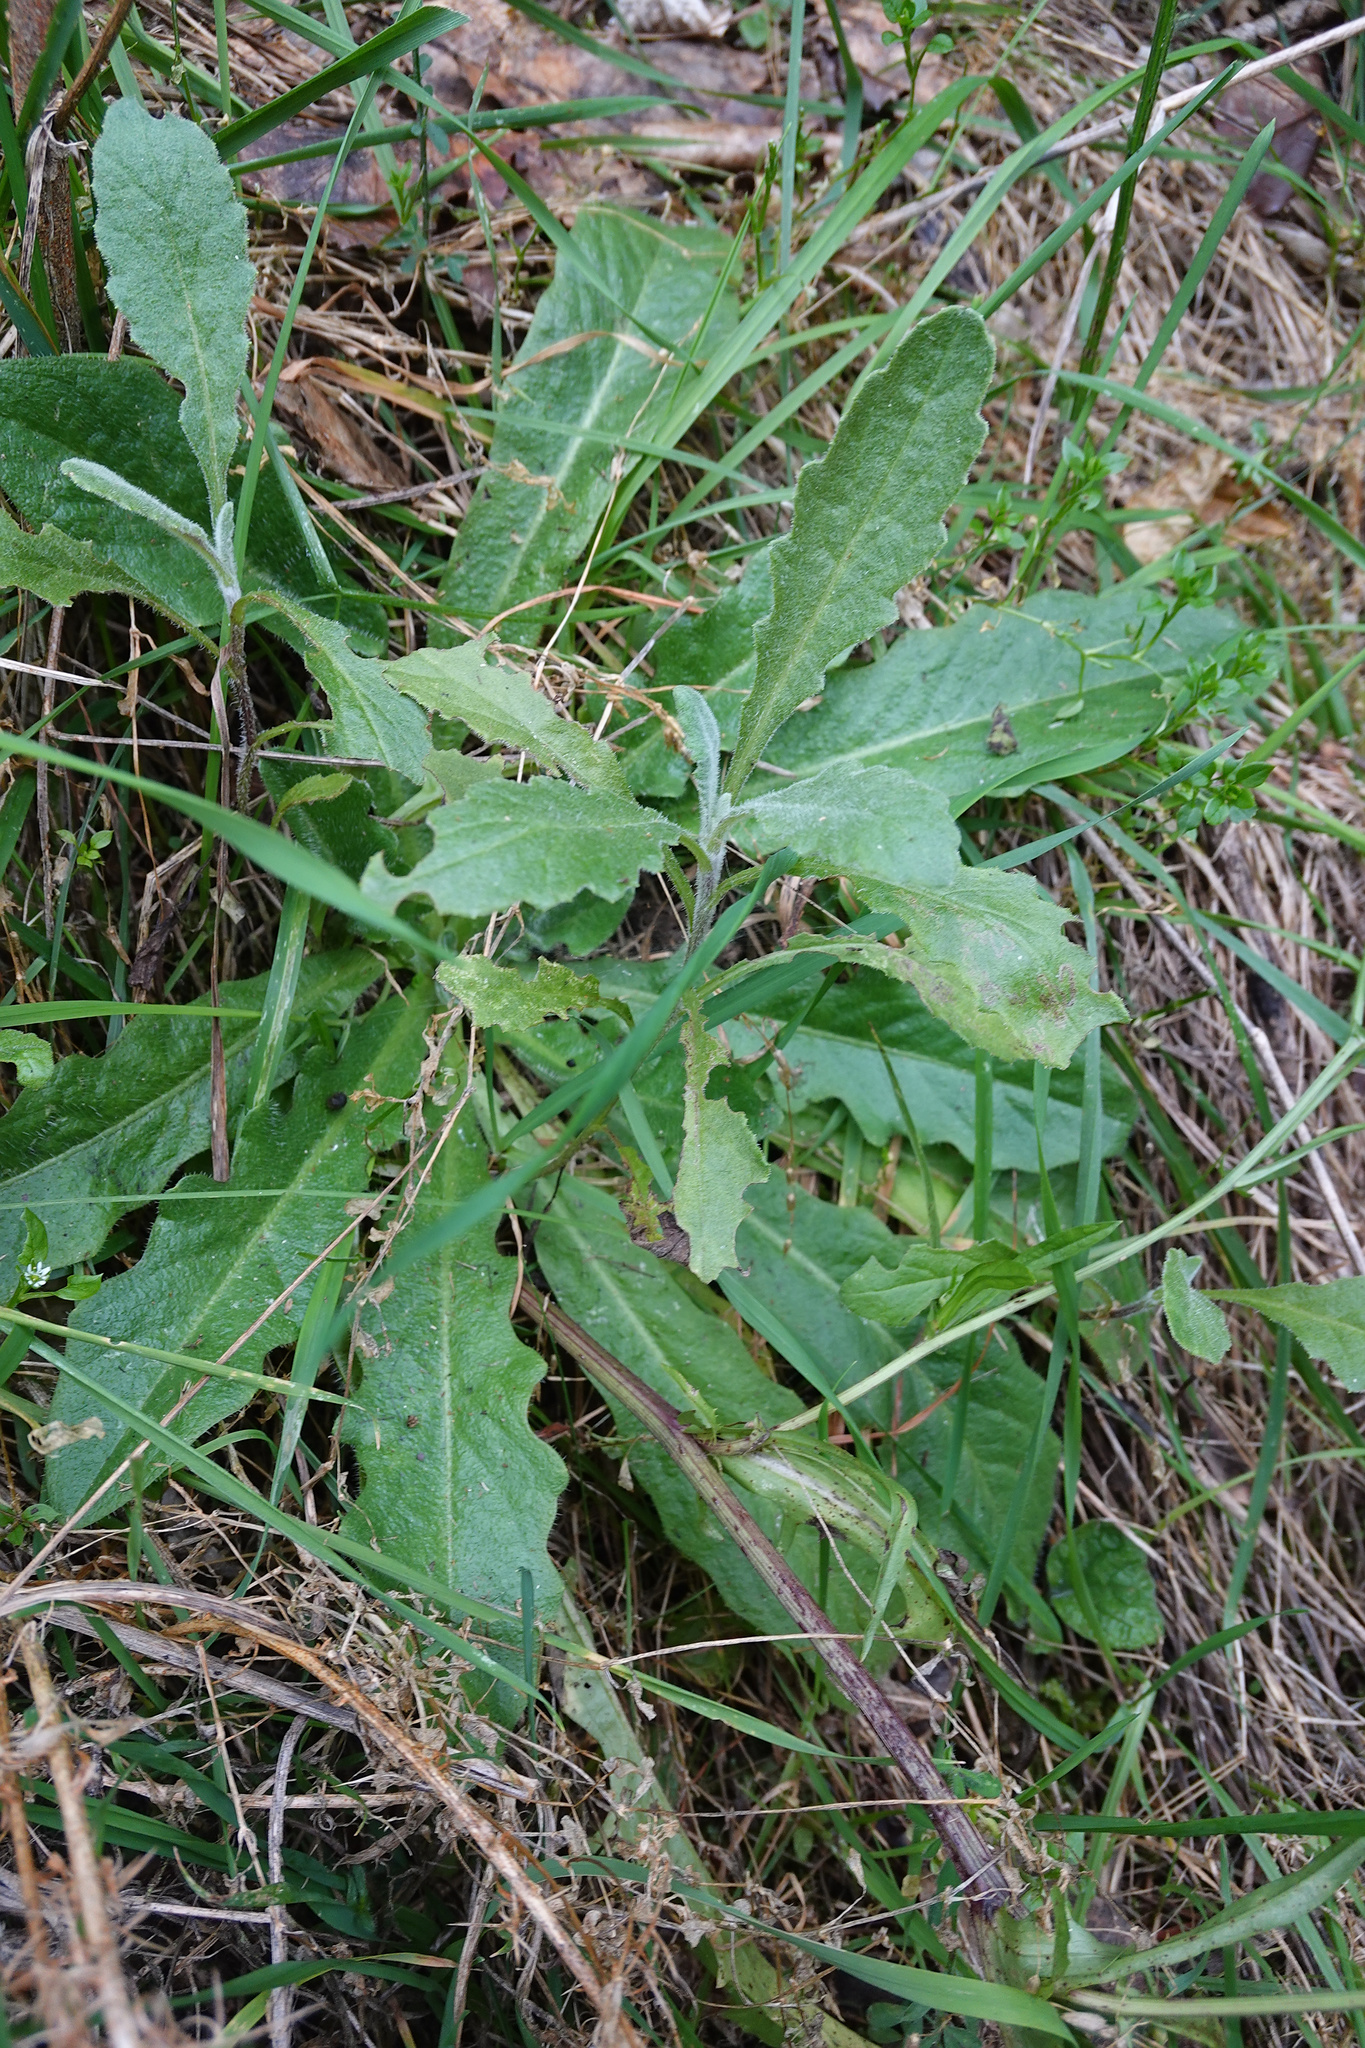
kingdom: Plantae
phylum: Tracheophyta
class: Magnoliopsida
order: Asterales
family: Asteraceae
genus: Senecio
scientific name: Senecio glomeratus
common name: Cutleaf burnweed
